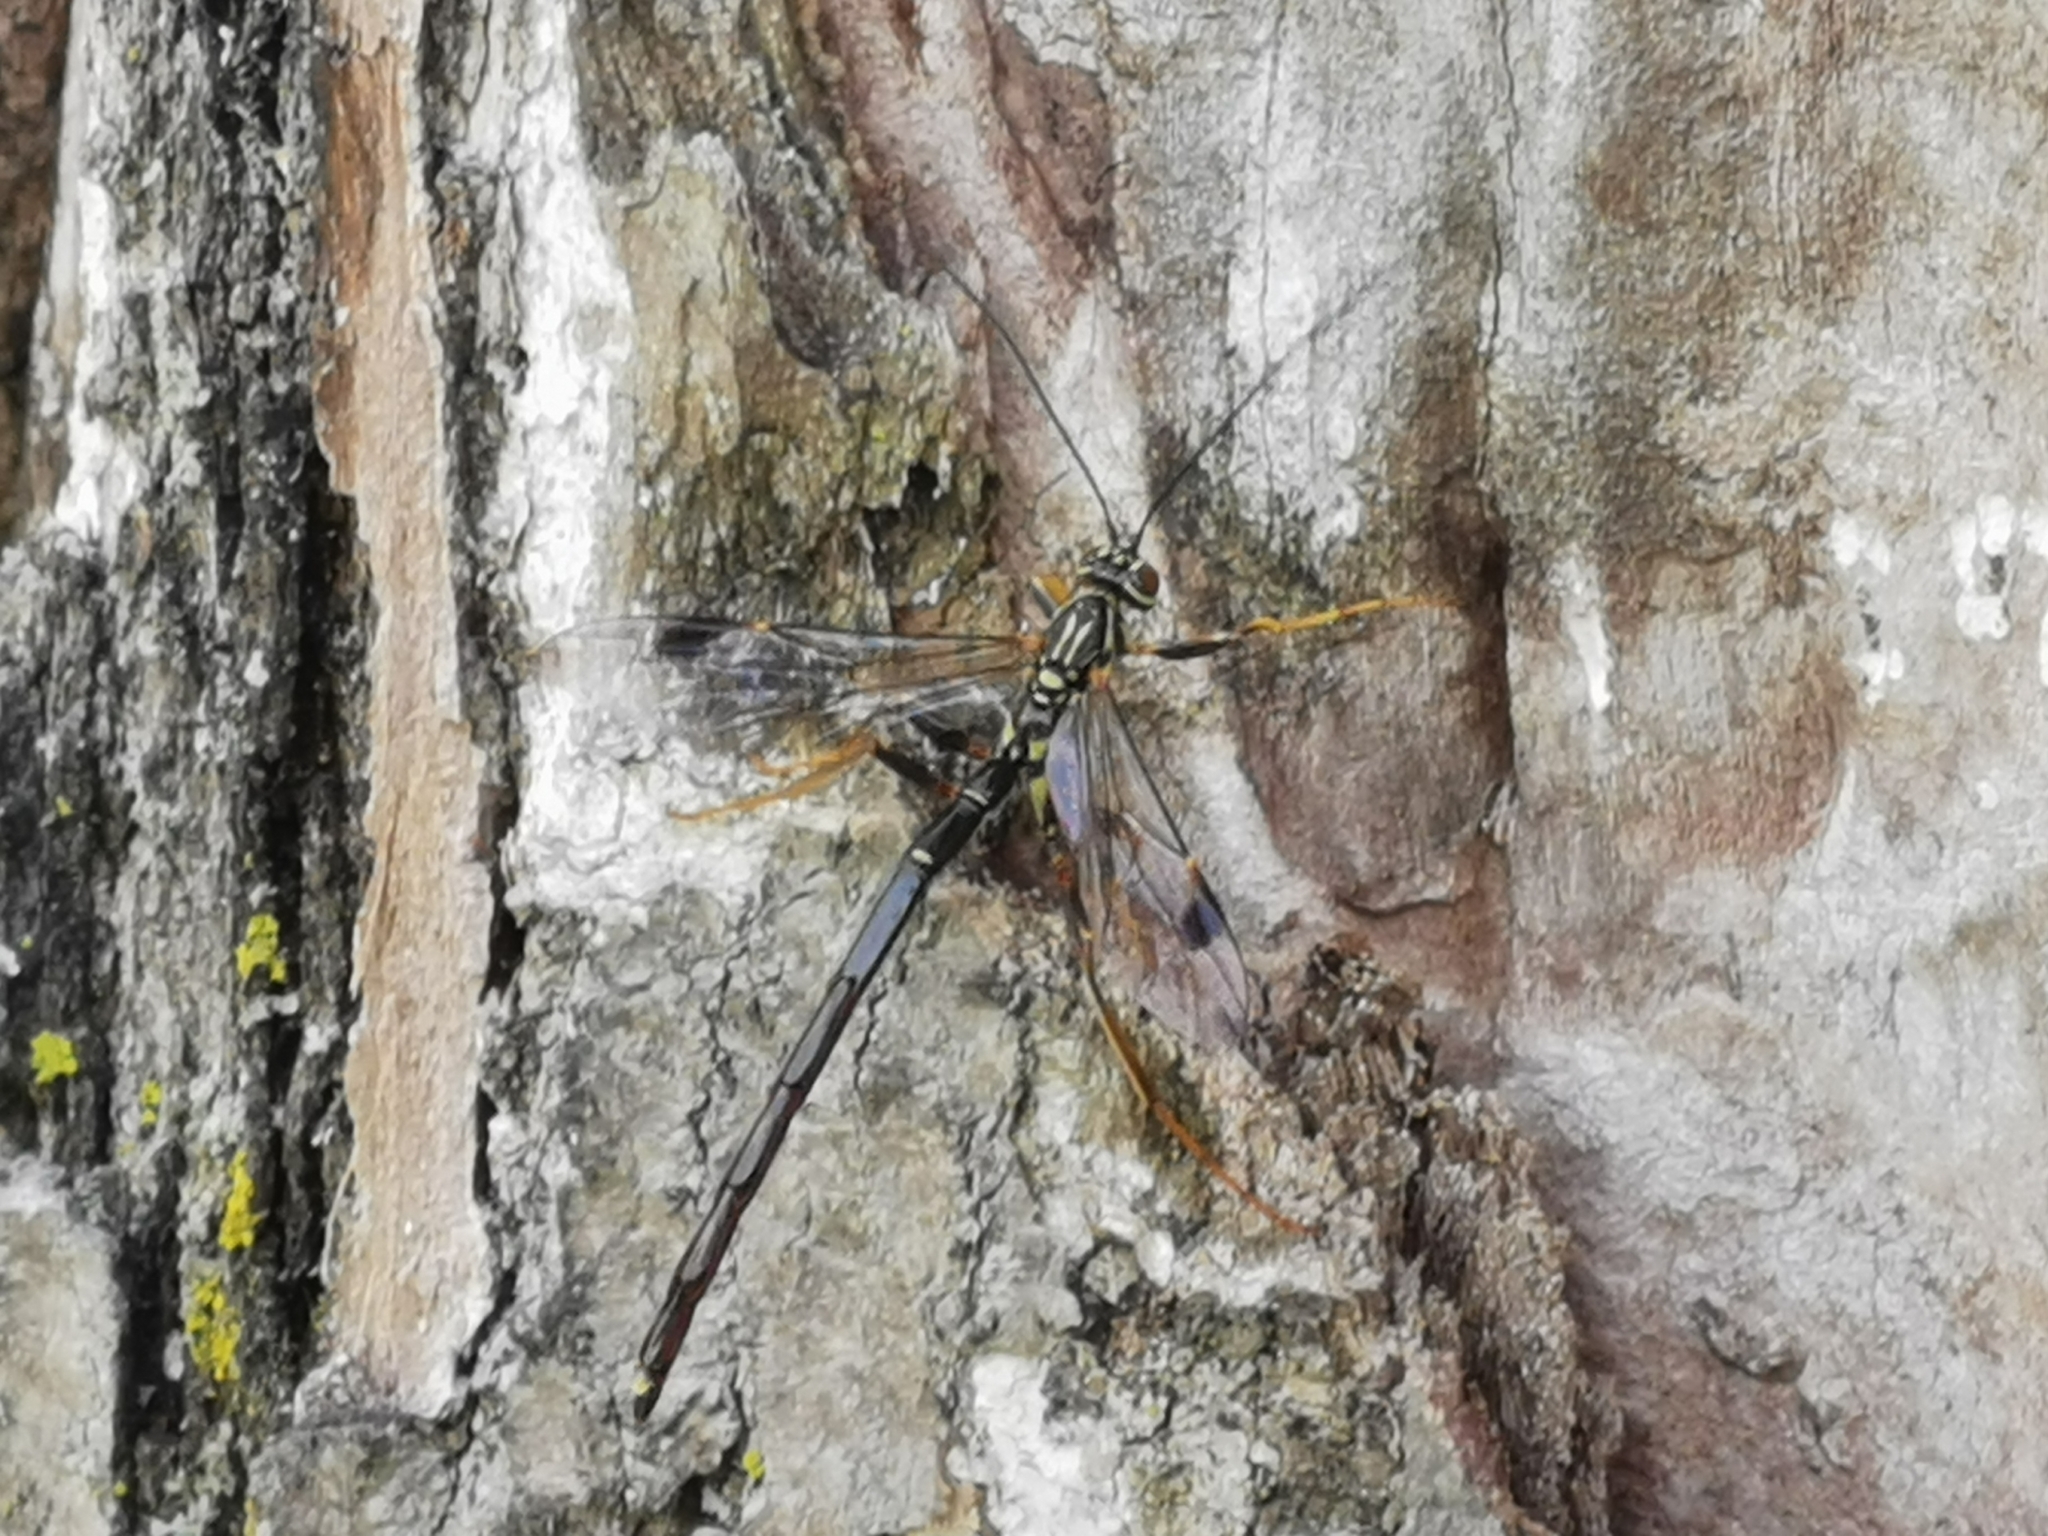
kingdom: Animalia
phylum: Arthropoda
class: Insecta
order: Hymenoptera
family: Ichneumonidae
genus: Megarhyssa
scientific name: Megarhyssa macrura
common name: Long-tailed giant ichneumonid wasp
